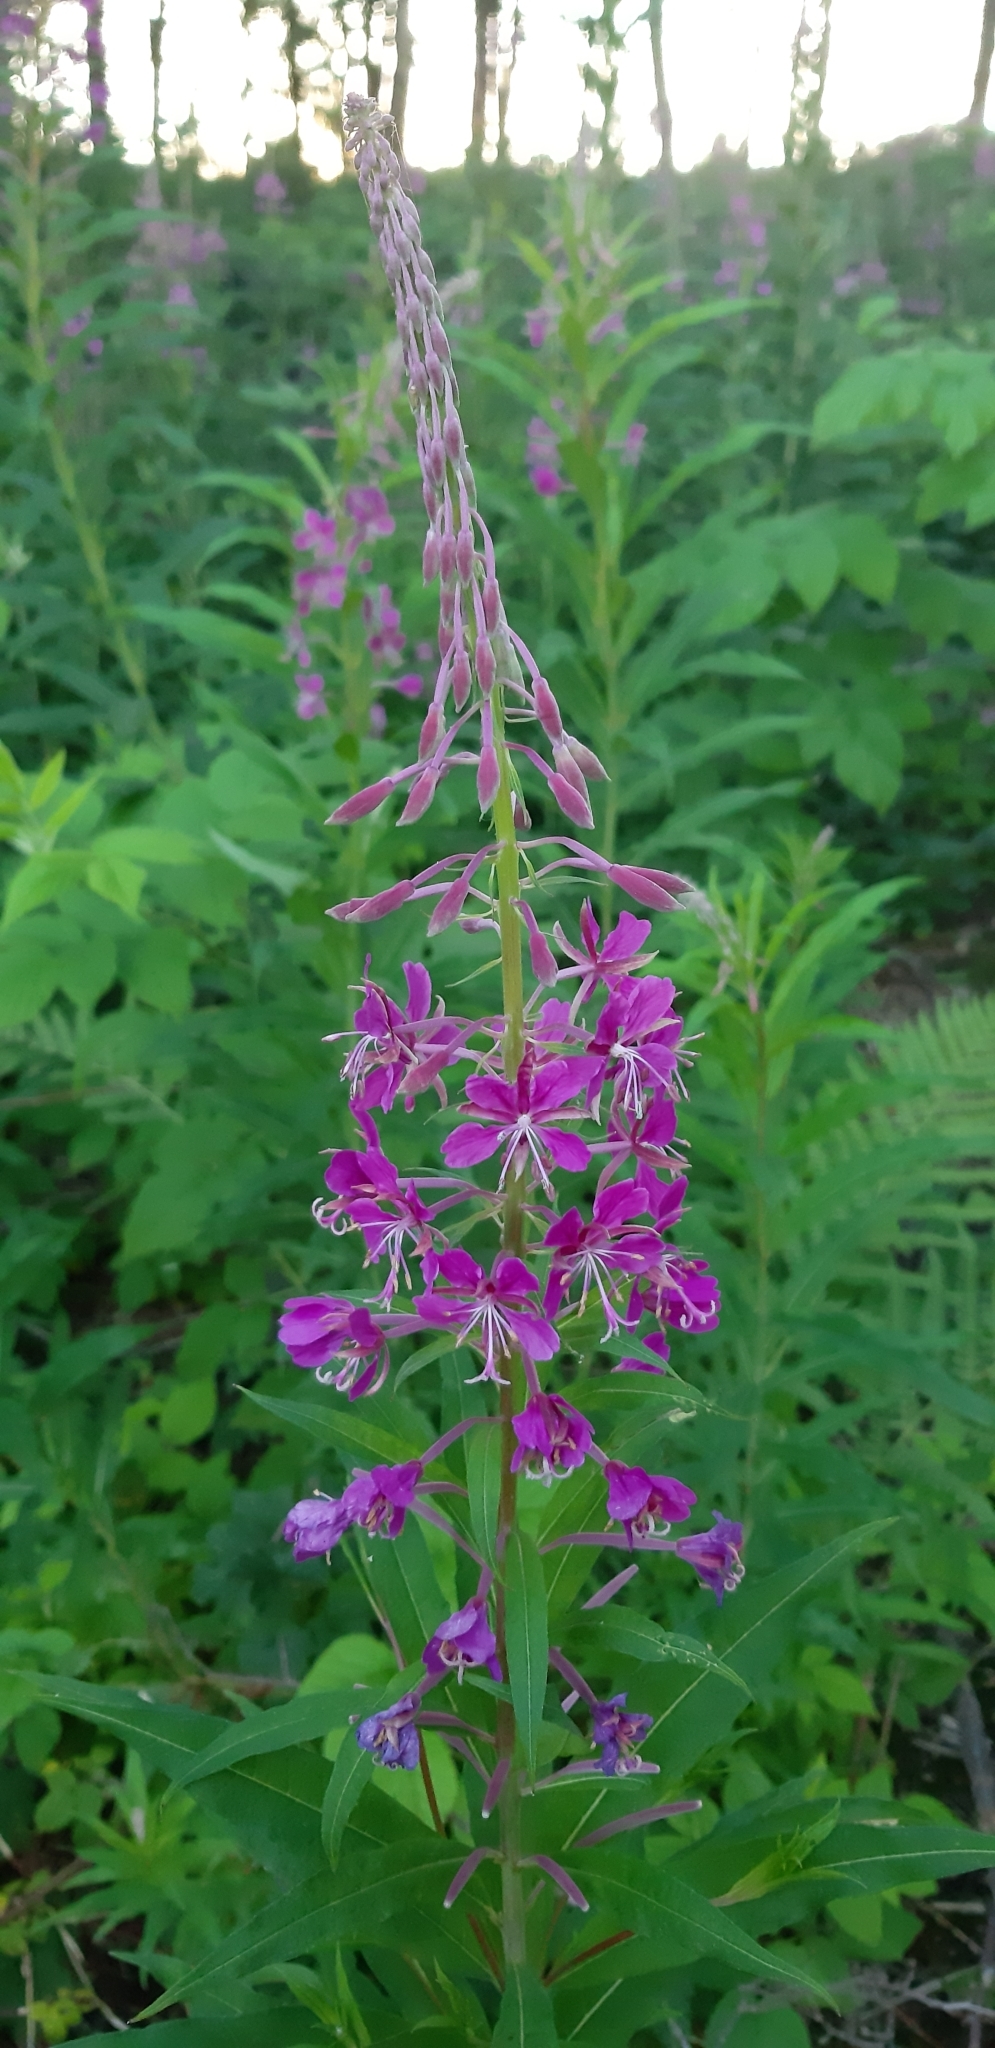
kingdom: Plantae
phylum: Tracheophyta
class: Magnoliopsida
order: Myrtales
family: Onagraceae
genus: Chamaenerion
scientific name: Chamaenerion angustifolium
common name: Fireweed
